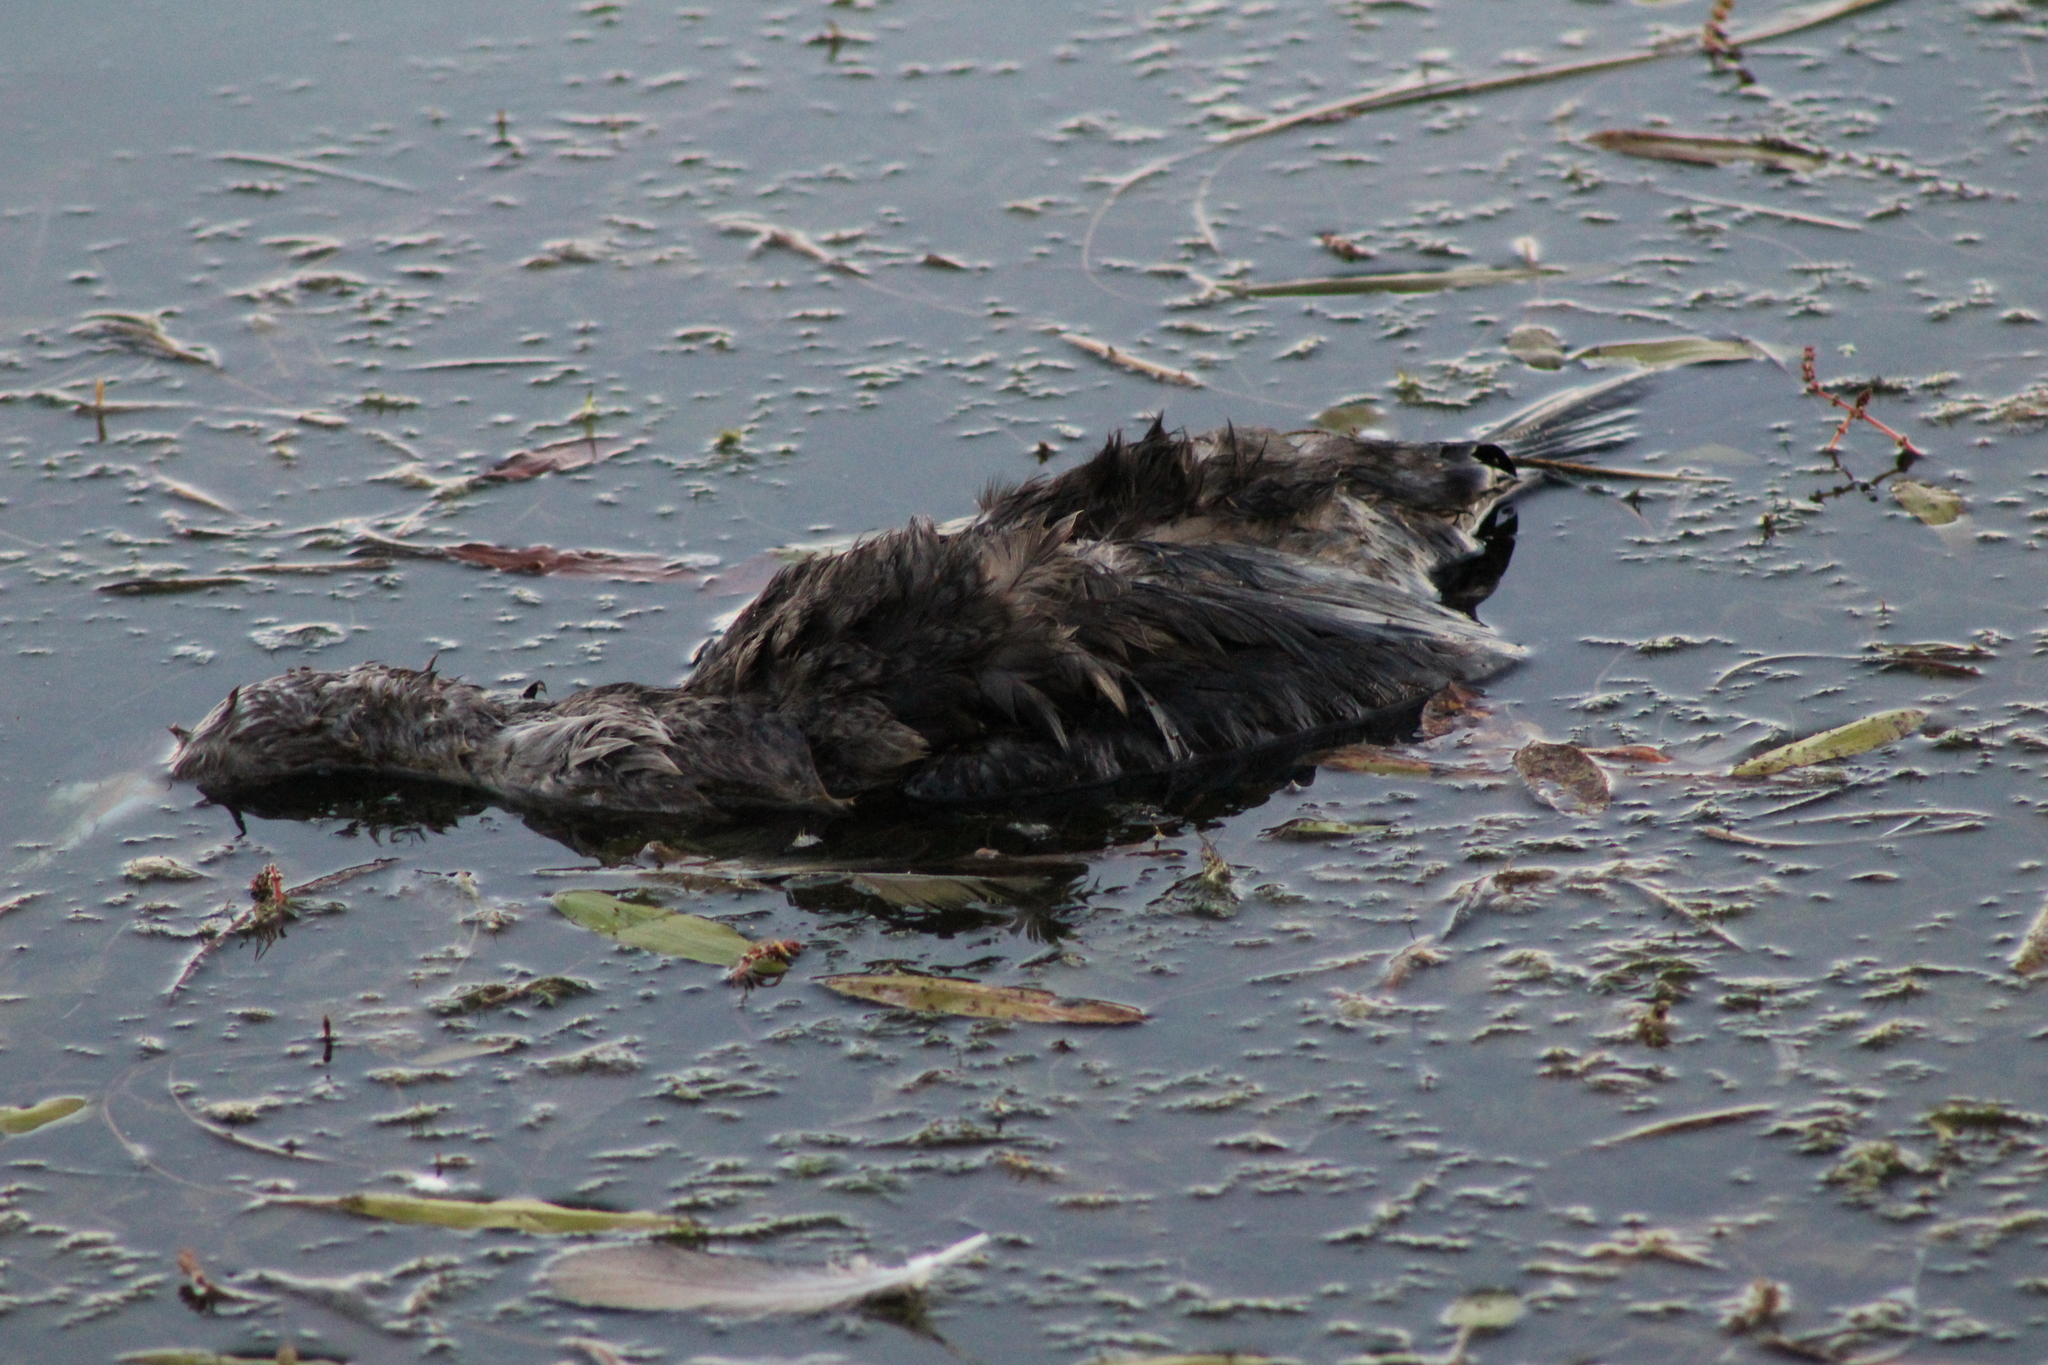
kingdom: Animalia
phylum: Chordata
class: Aves
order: Suliformes
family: Phalacrocoracidae
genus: Phalacrocorax
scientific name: Phalacrocorax auritus
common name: Double-crested cormorant
